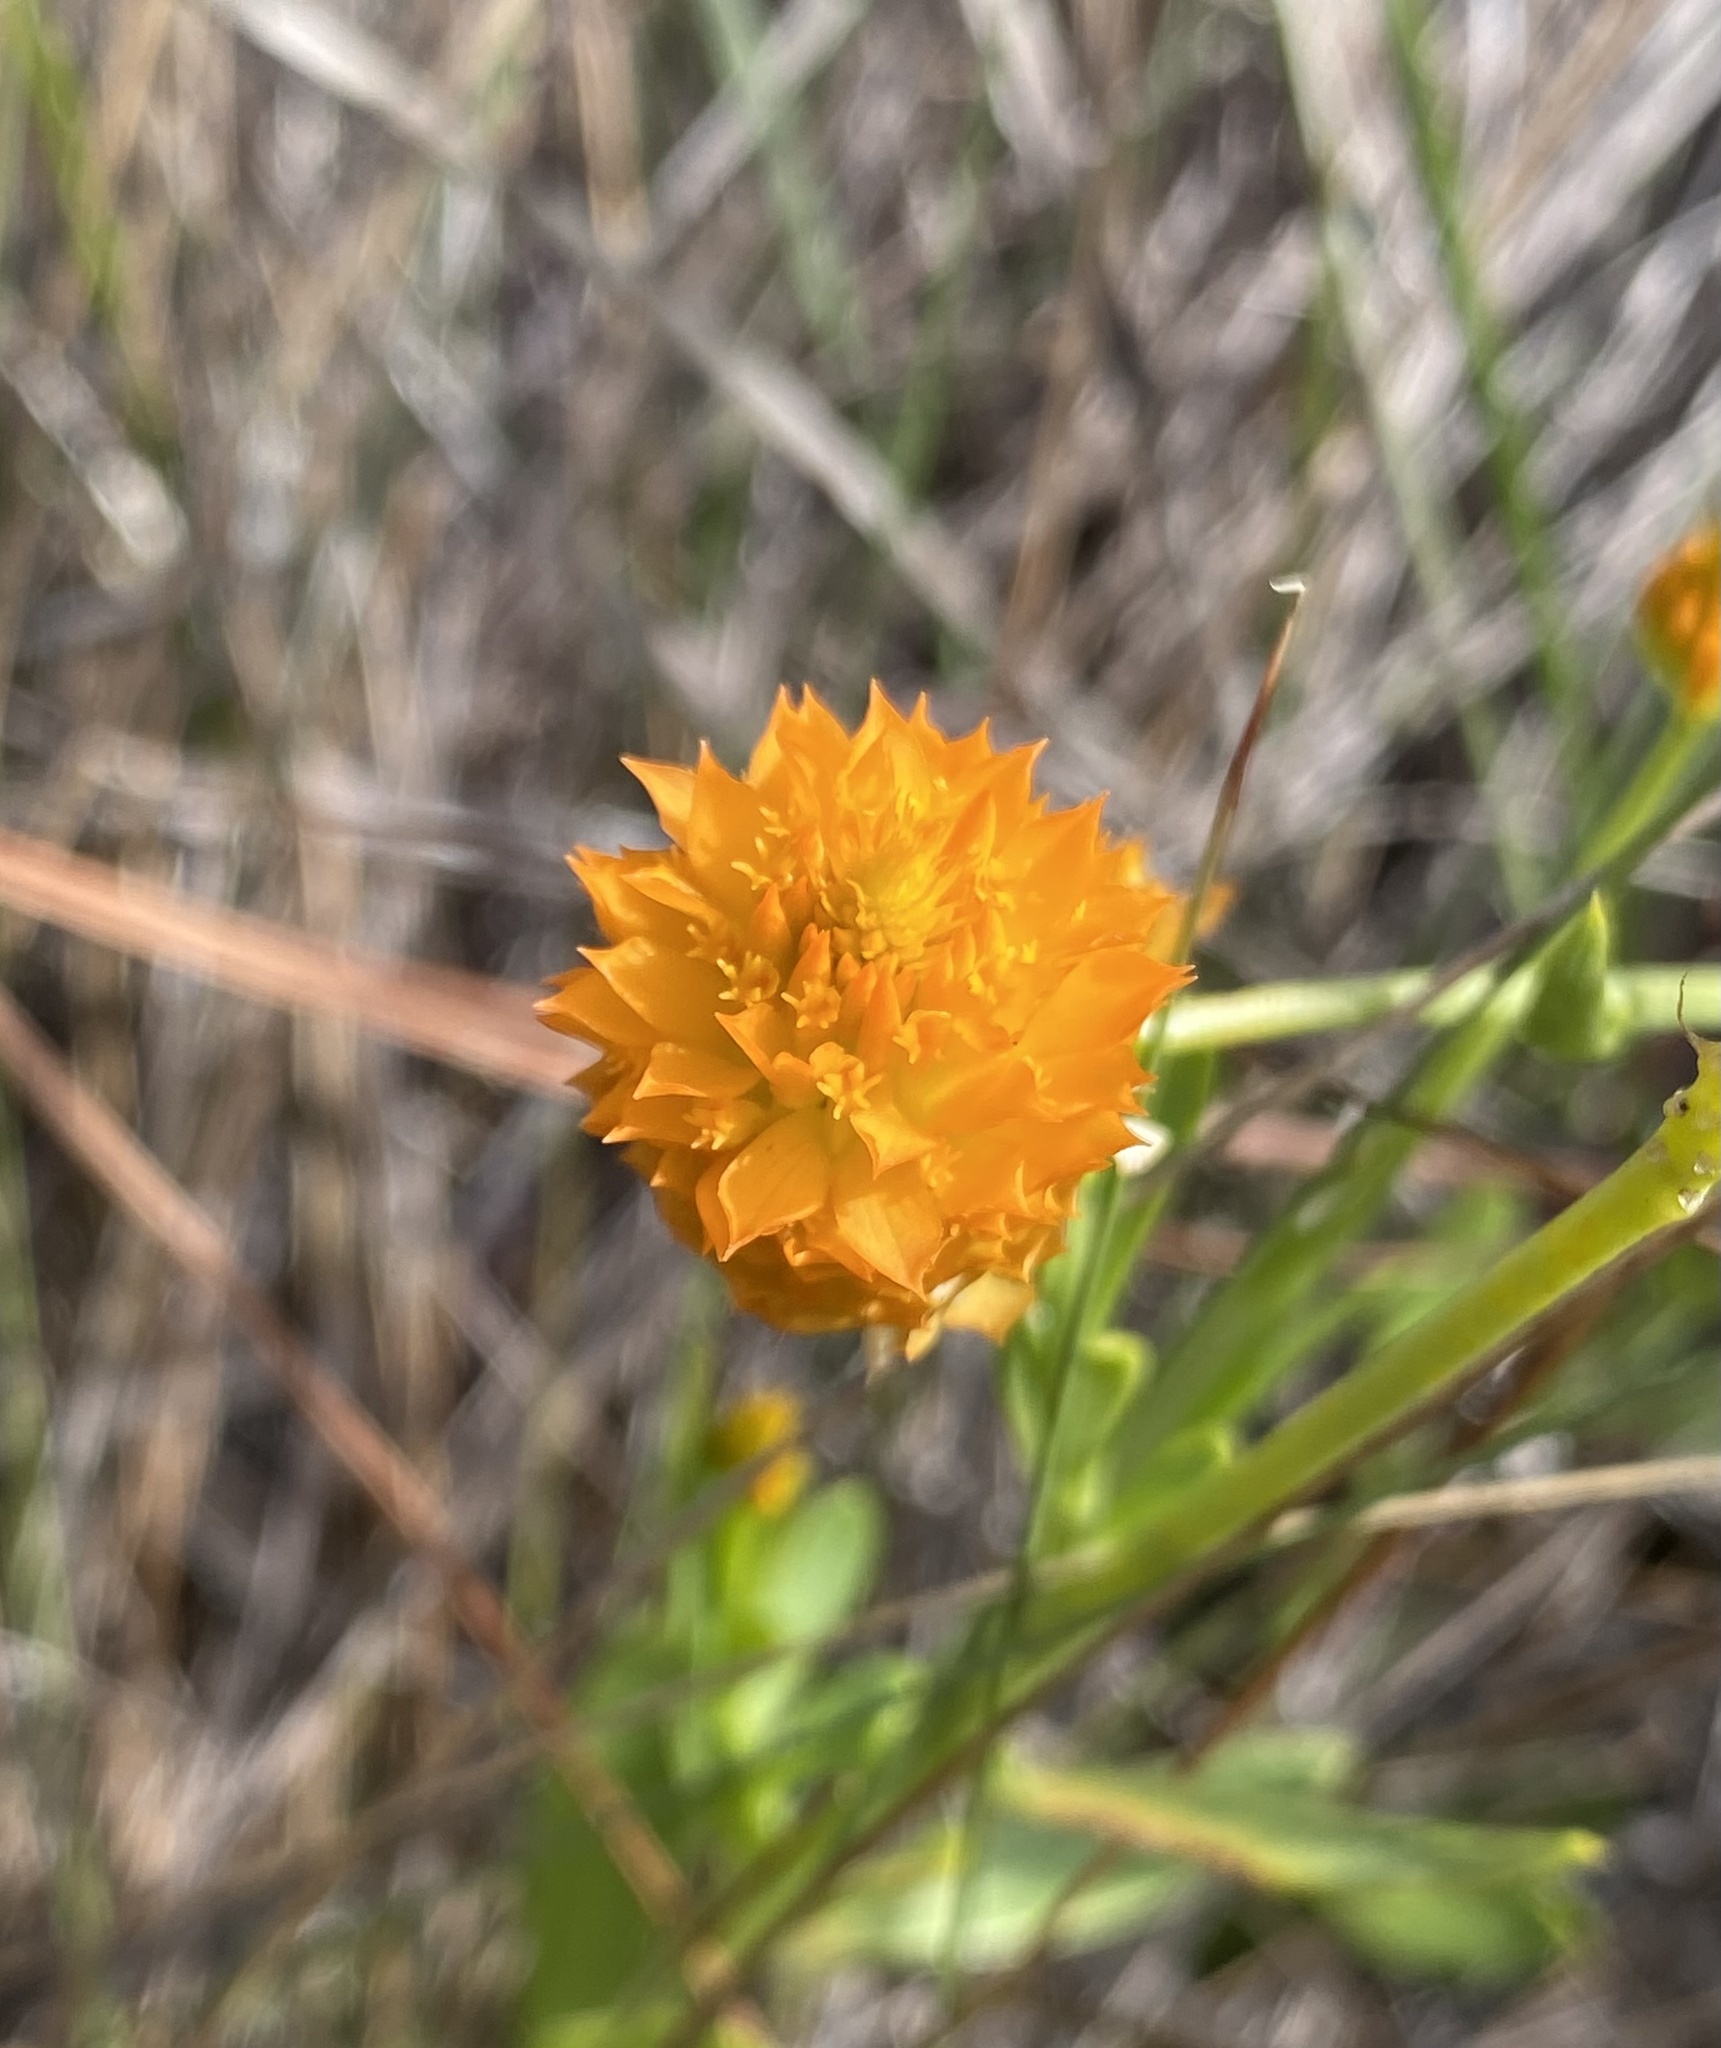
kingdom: Plantae
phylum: Tracheophyta
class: Magnoliopsida
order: Fabales
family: Polygalaceae
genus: Polygala
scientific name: Polygala lutea
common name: Orange milkwort
